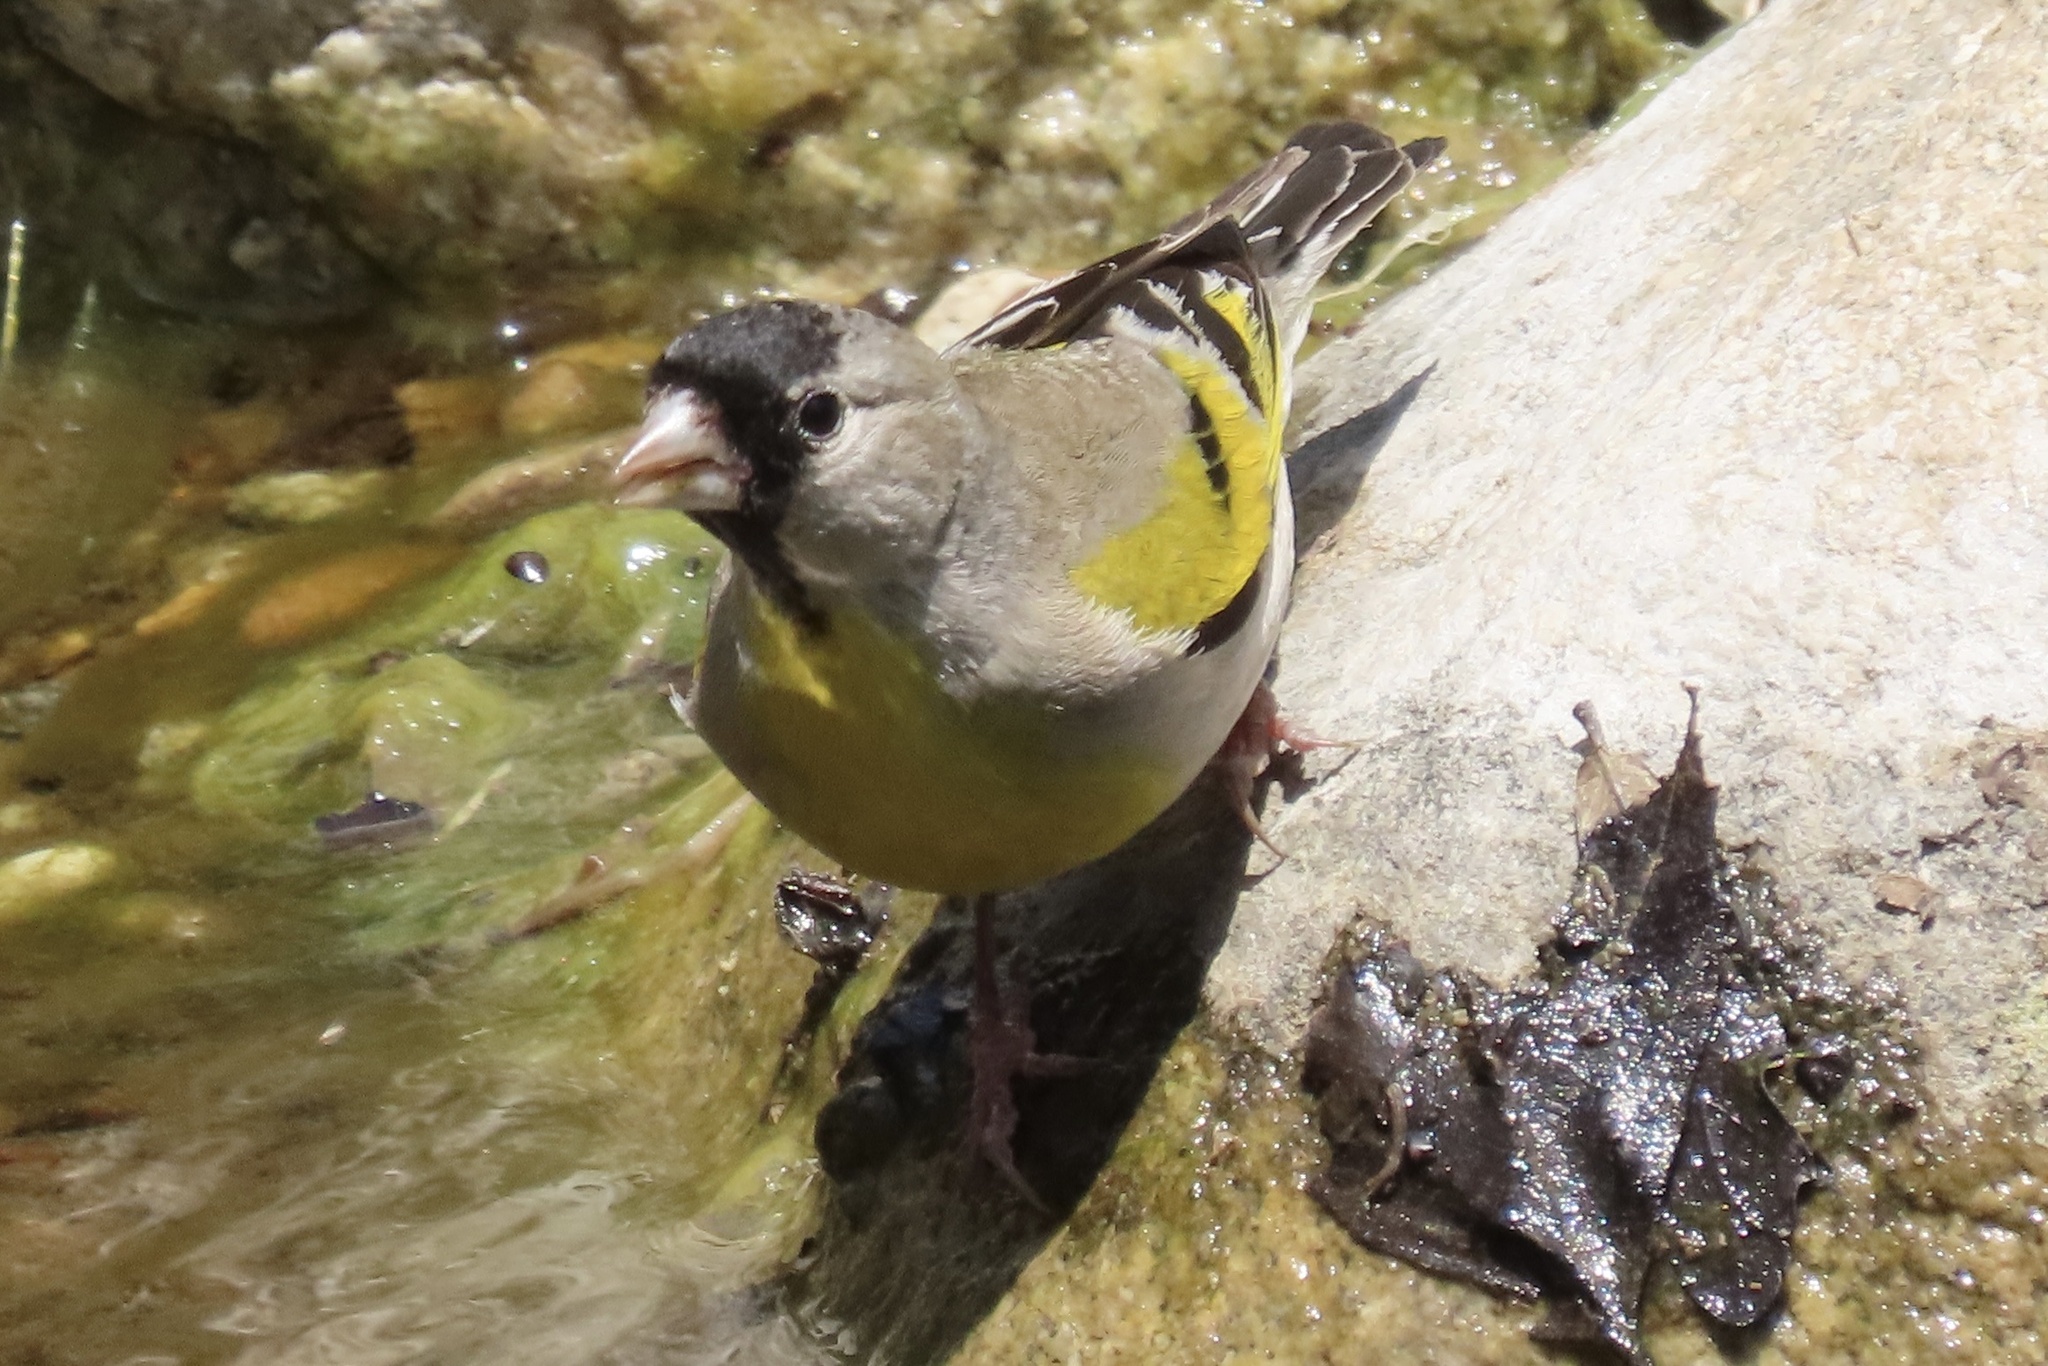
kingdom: Animalia
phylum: Chordata
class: Aves
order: Passeriformes
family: Fringillidae
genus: Spinus
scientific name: Spinus lawrencei
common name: Lawrence's goldfinch
